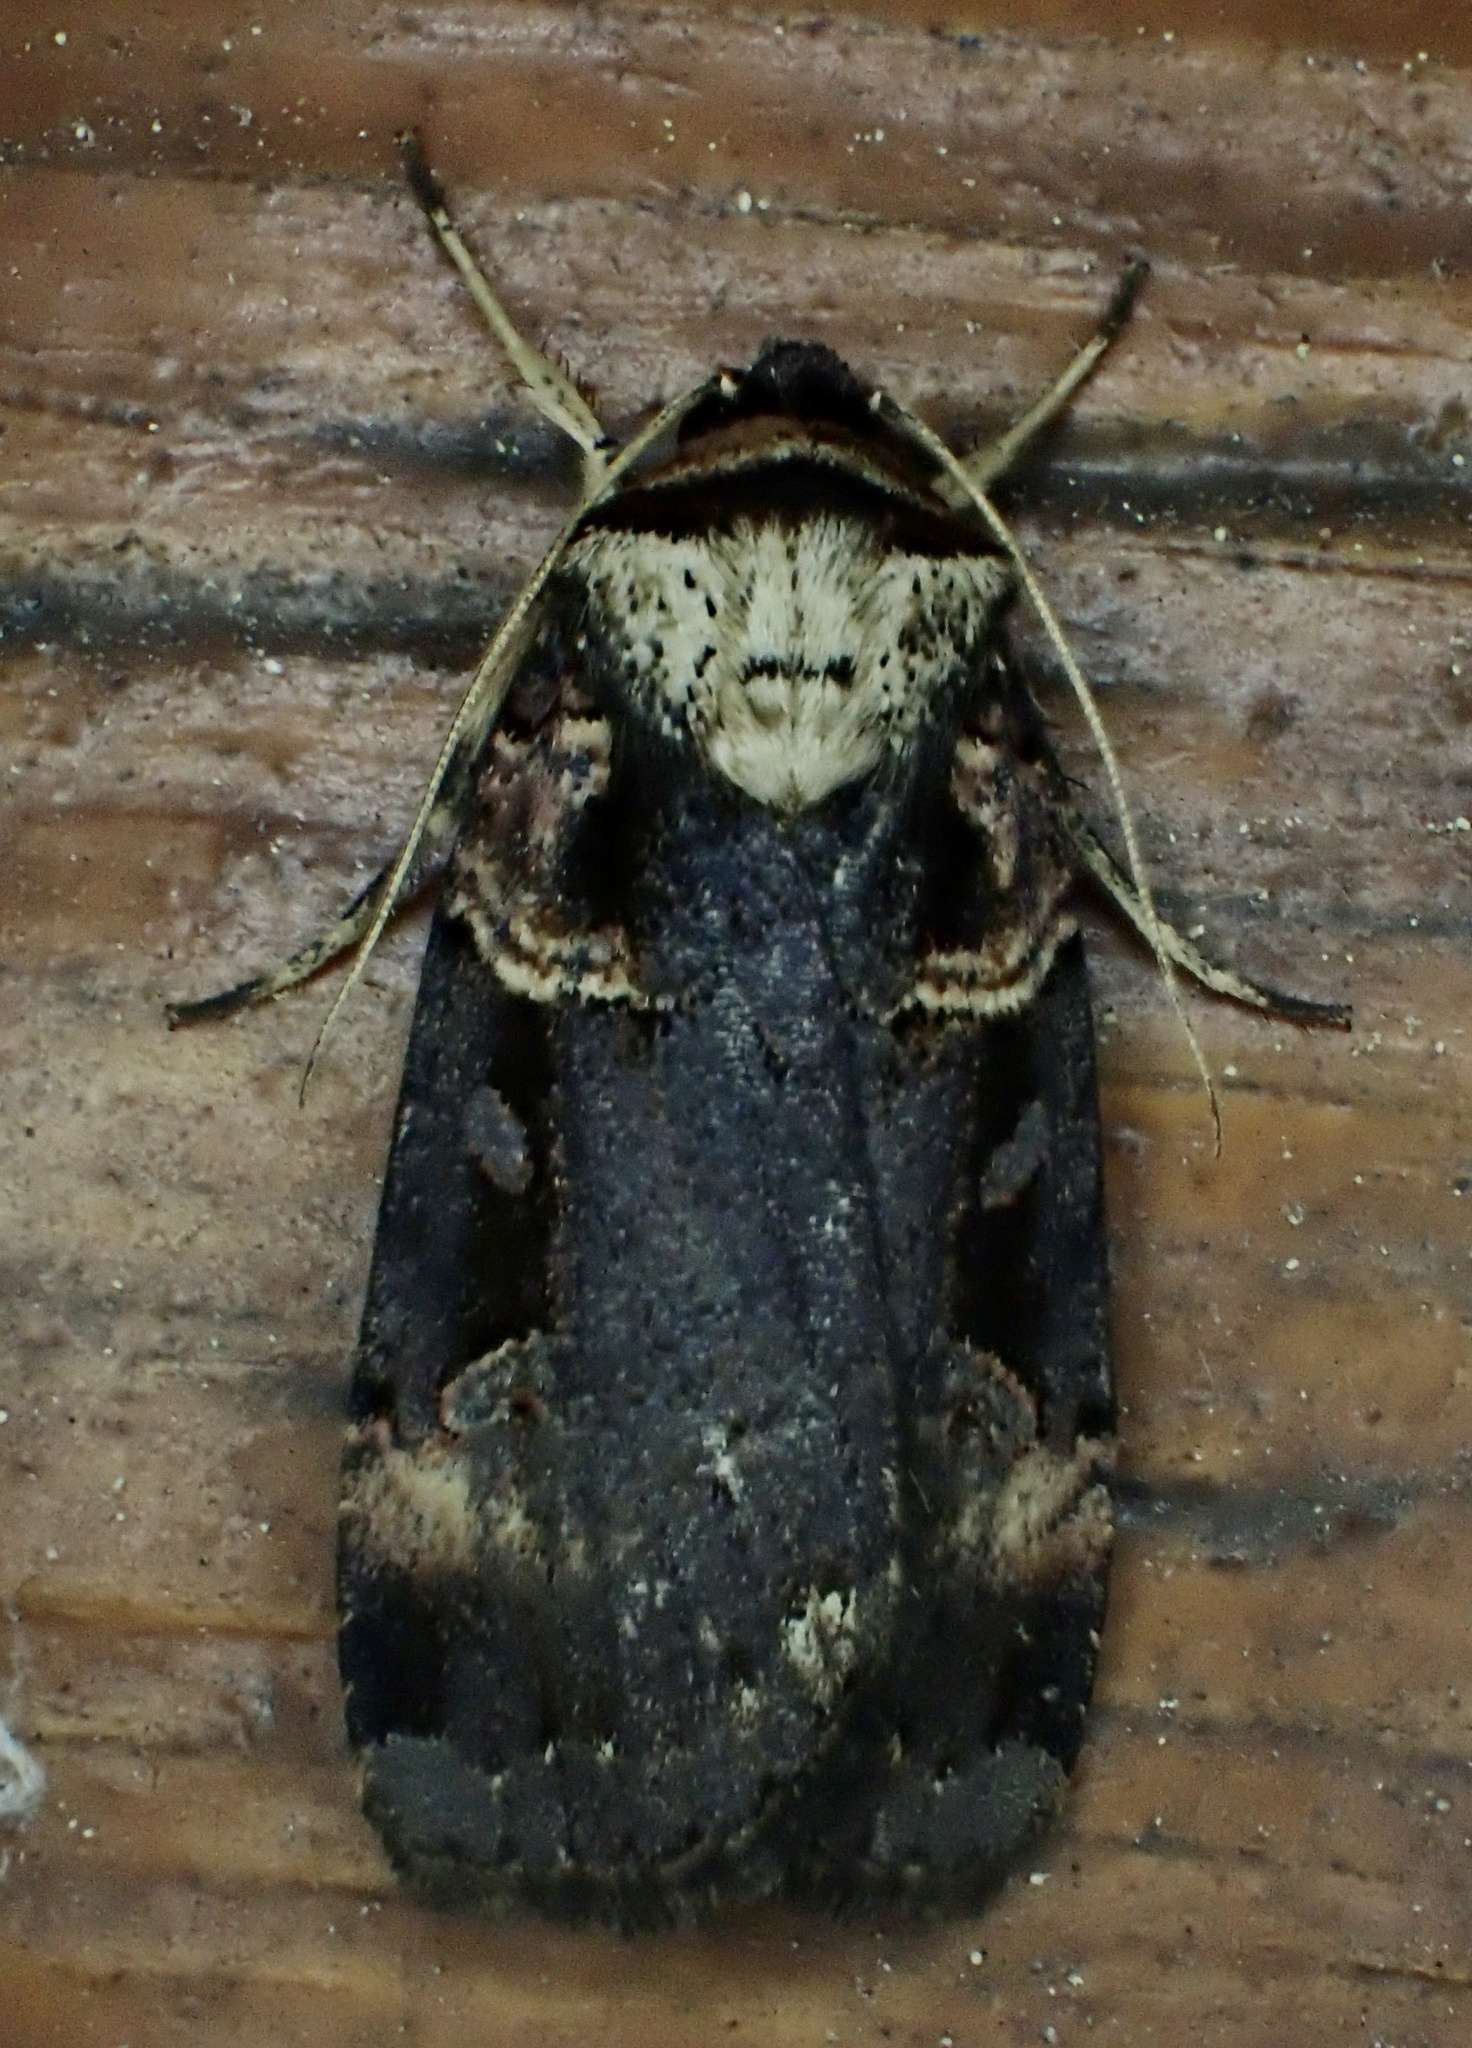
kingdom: Animalia
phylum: Arthropoda
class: Insecta
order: Lepidoptera
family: Noctuidae
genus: Pseudohermonassa
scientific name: Pseudohermonassa bicarnea
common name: Pink spotted dart
